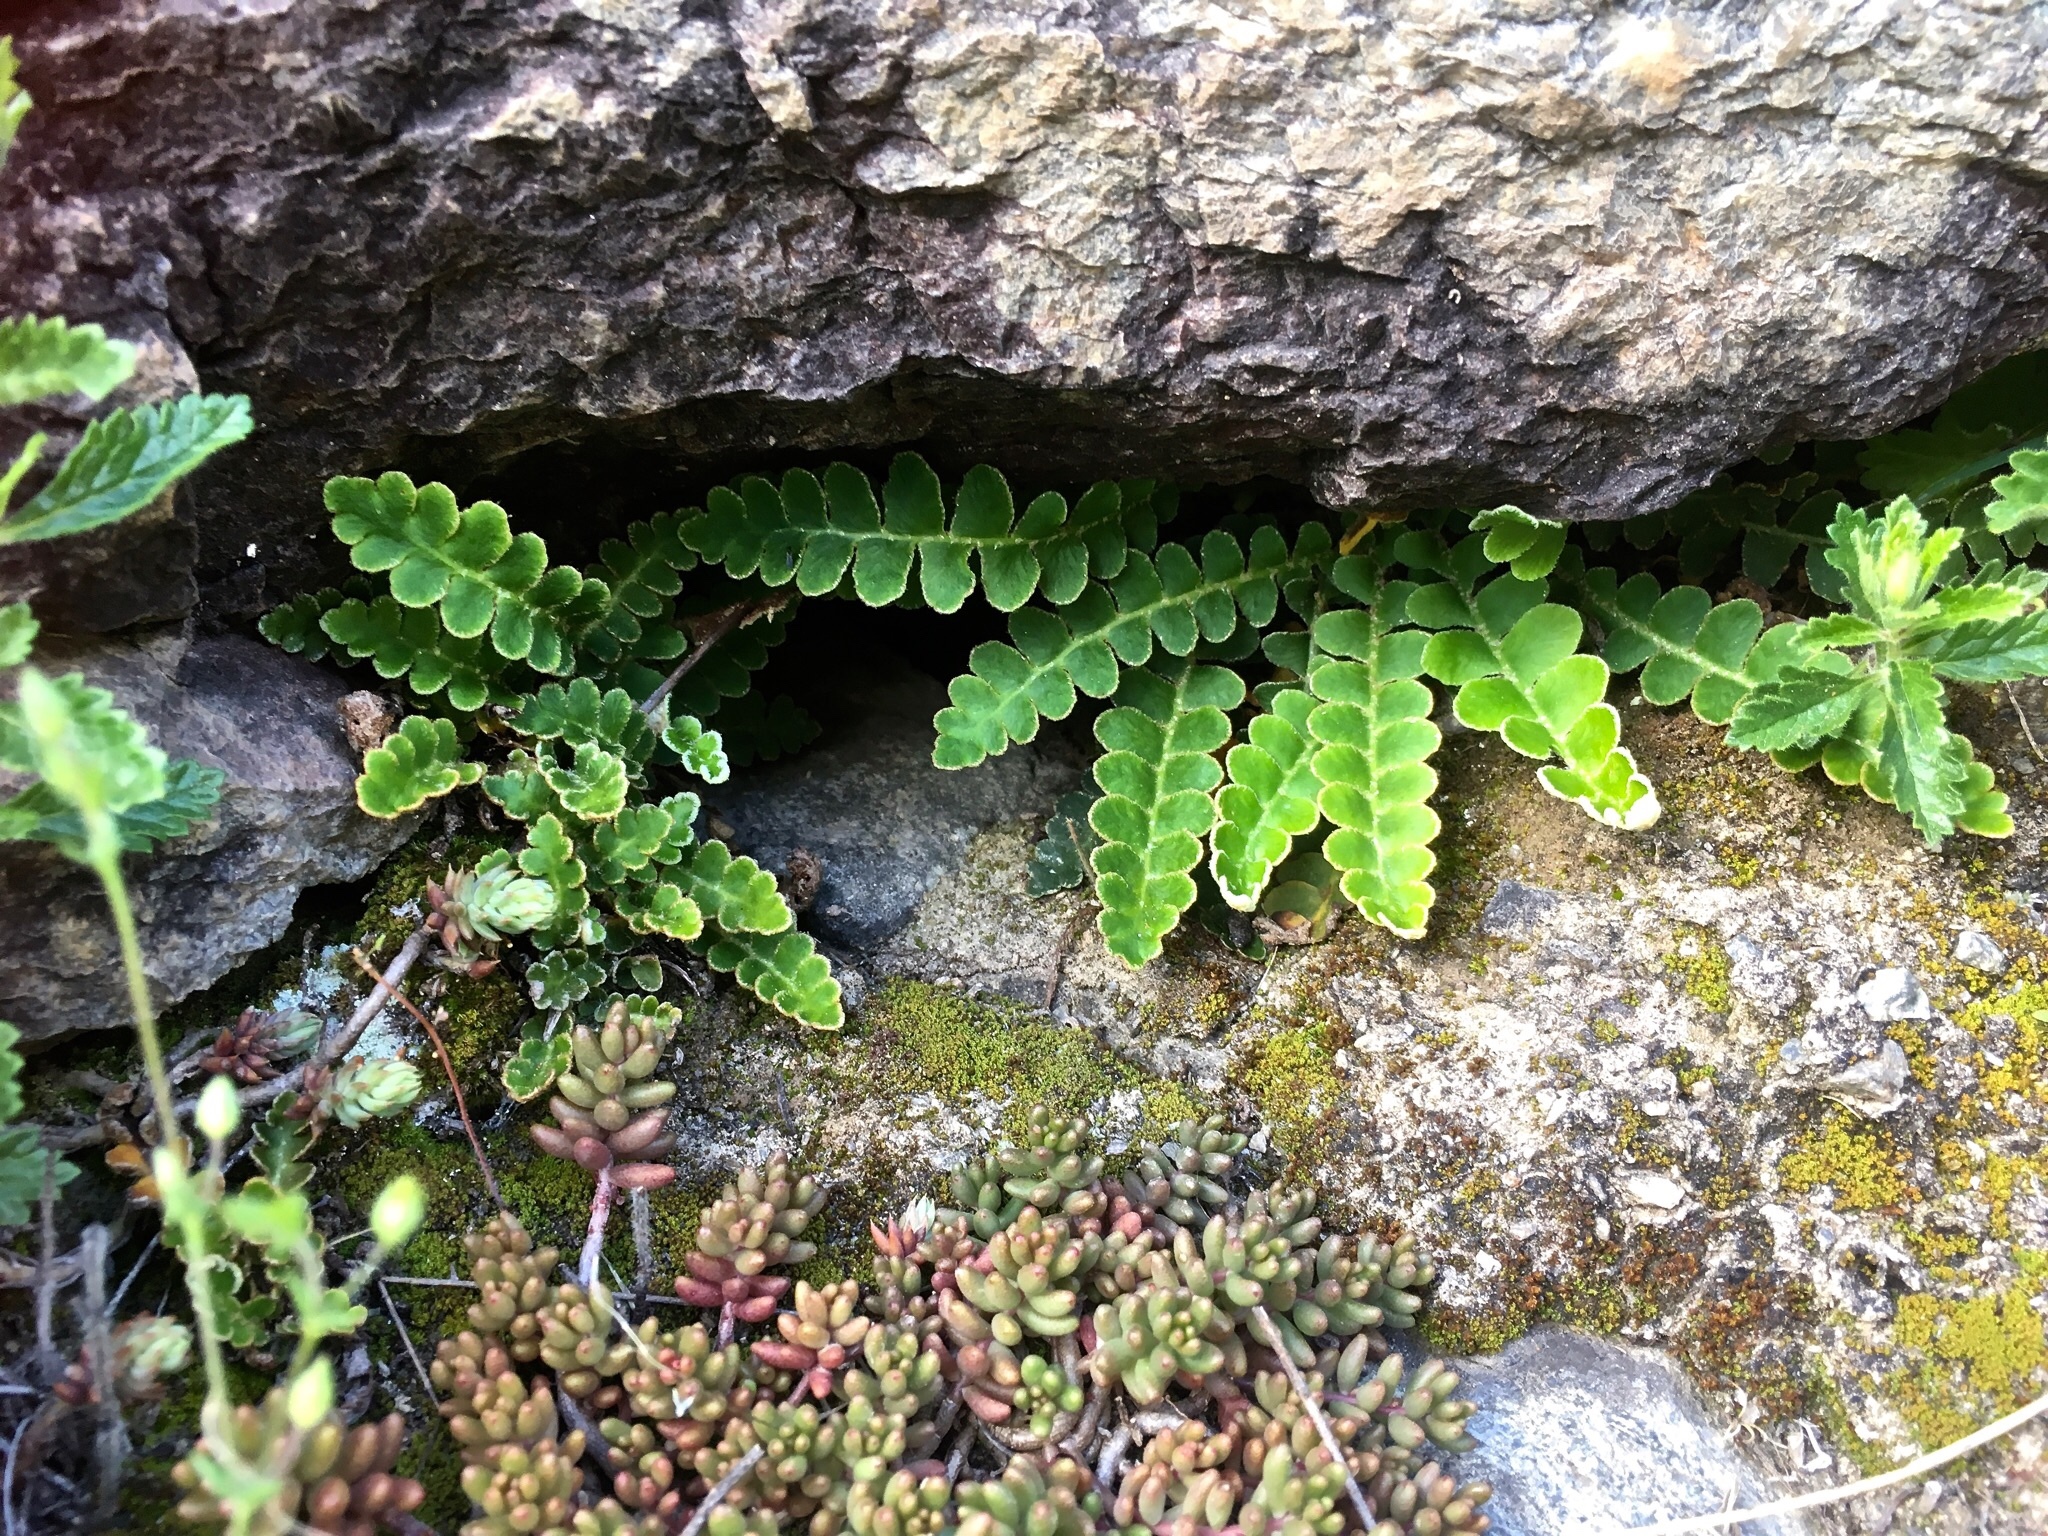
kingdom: Plantae
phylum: Tracheophyta
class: Polypodiopsida
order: Polypodiales
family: Aspleniaceae
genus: Asplenium
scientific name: Asplenium ceterach
